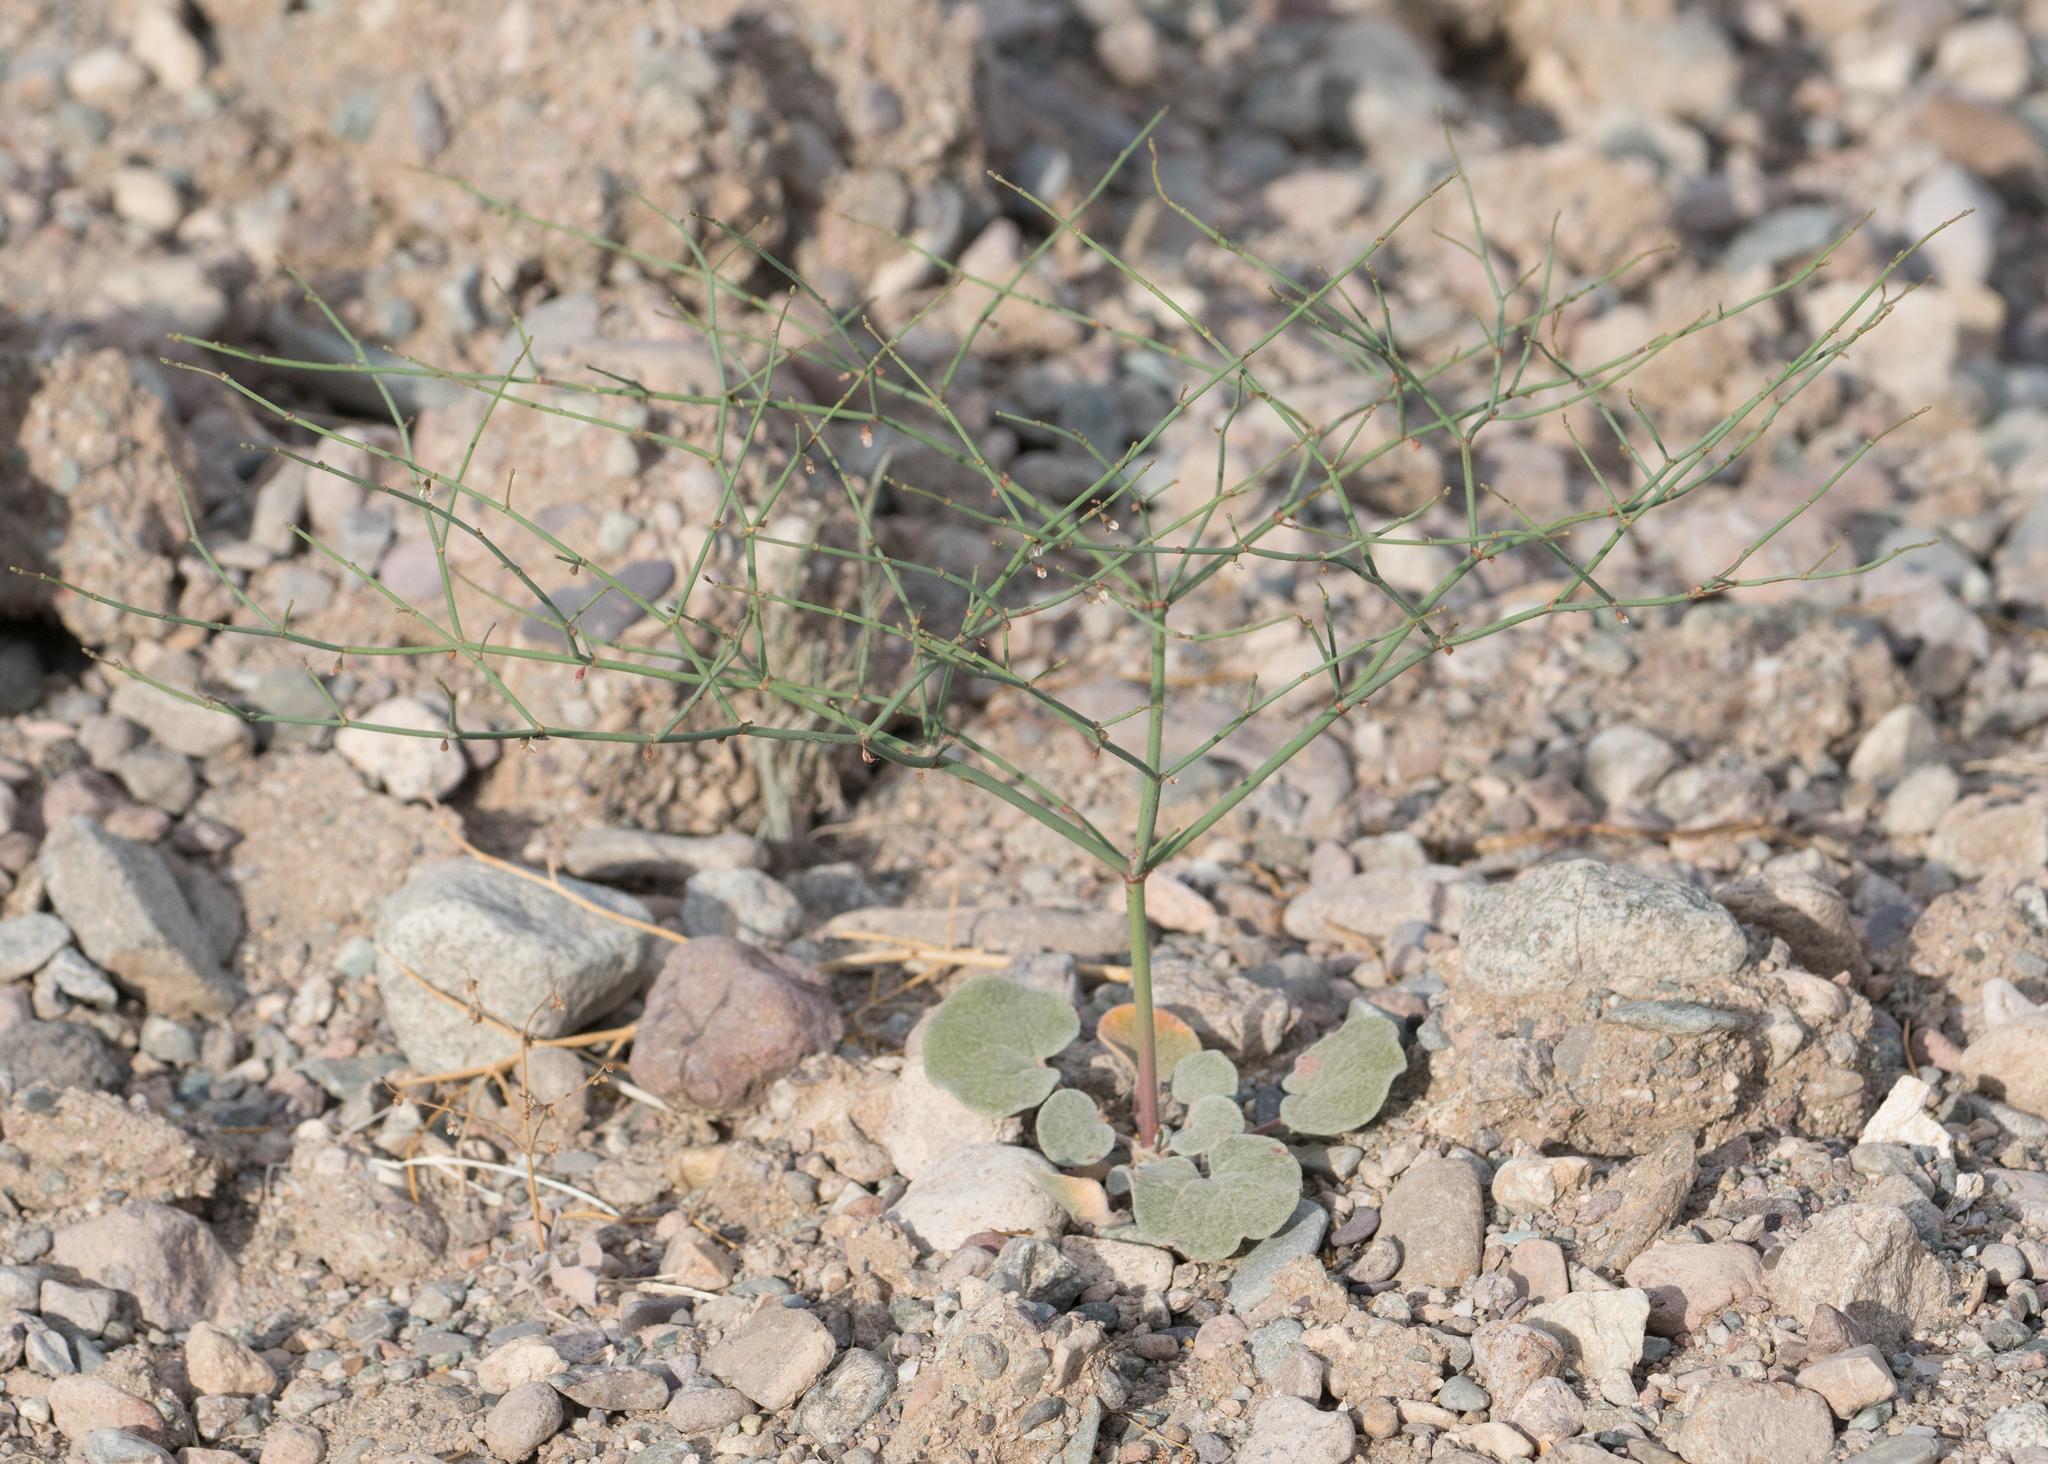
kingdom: Plantae
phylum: Tracheophyta
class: Magnoliopsida
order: Caryophyllales
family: Polygonaceae
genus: Eriogonum
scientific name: Eriogonum deflexum
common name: Skeleton-weed
